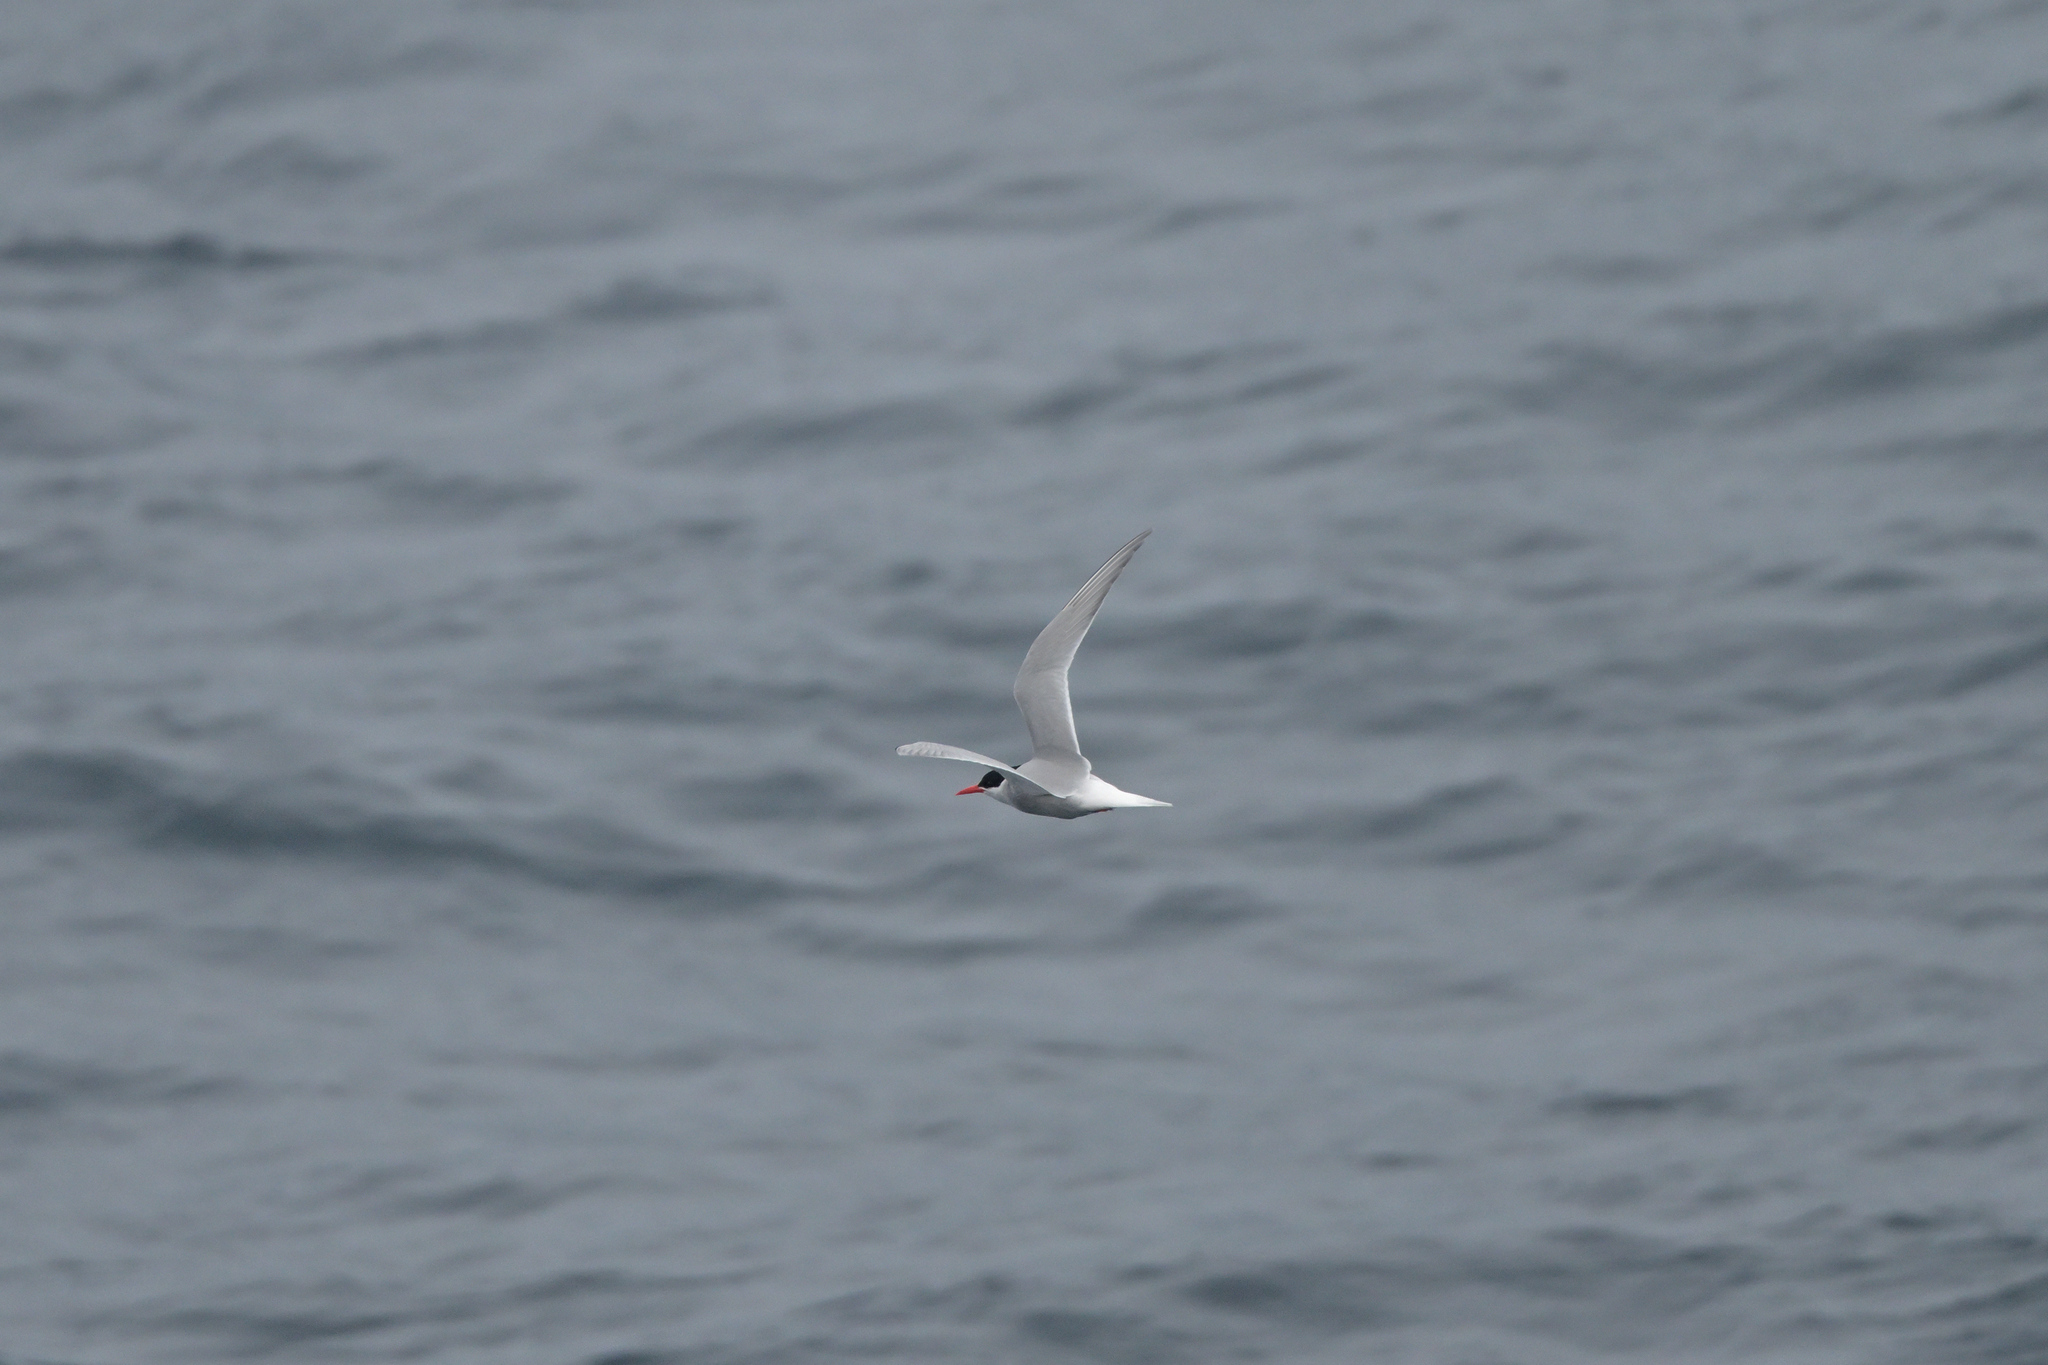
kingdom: Animalia
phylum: Chordata
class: Aves
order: Charadriiformes
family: Laridae
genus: Sterna
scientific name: Sterna vittata
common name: Antarctic tern
